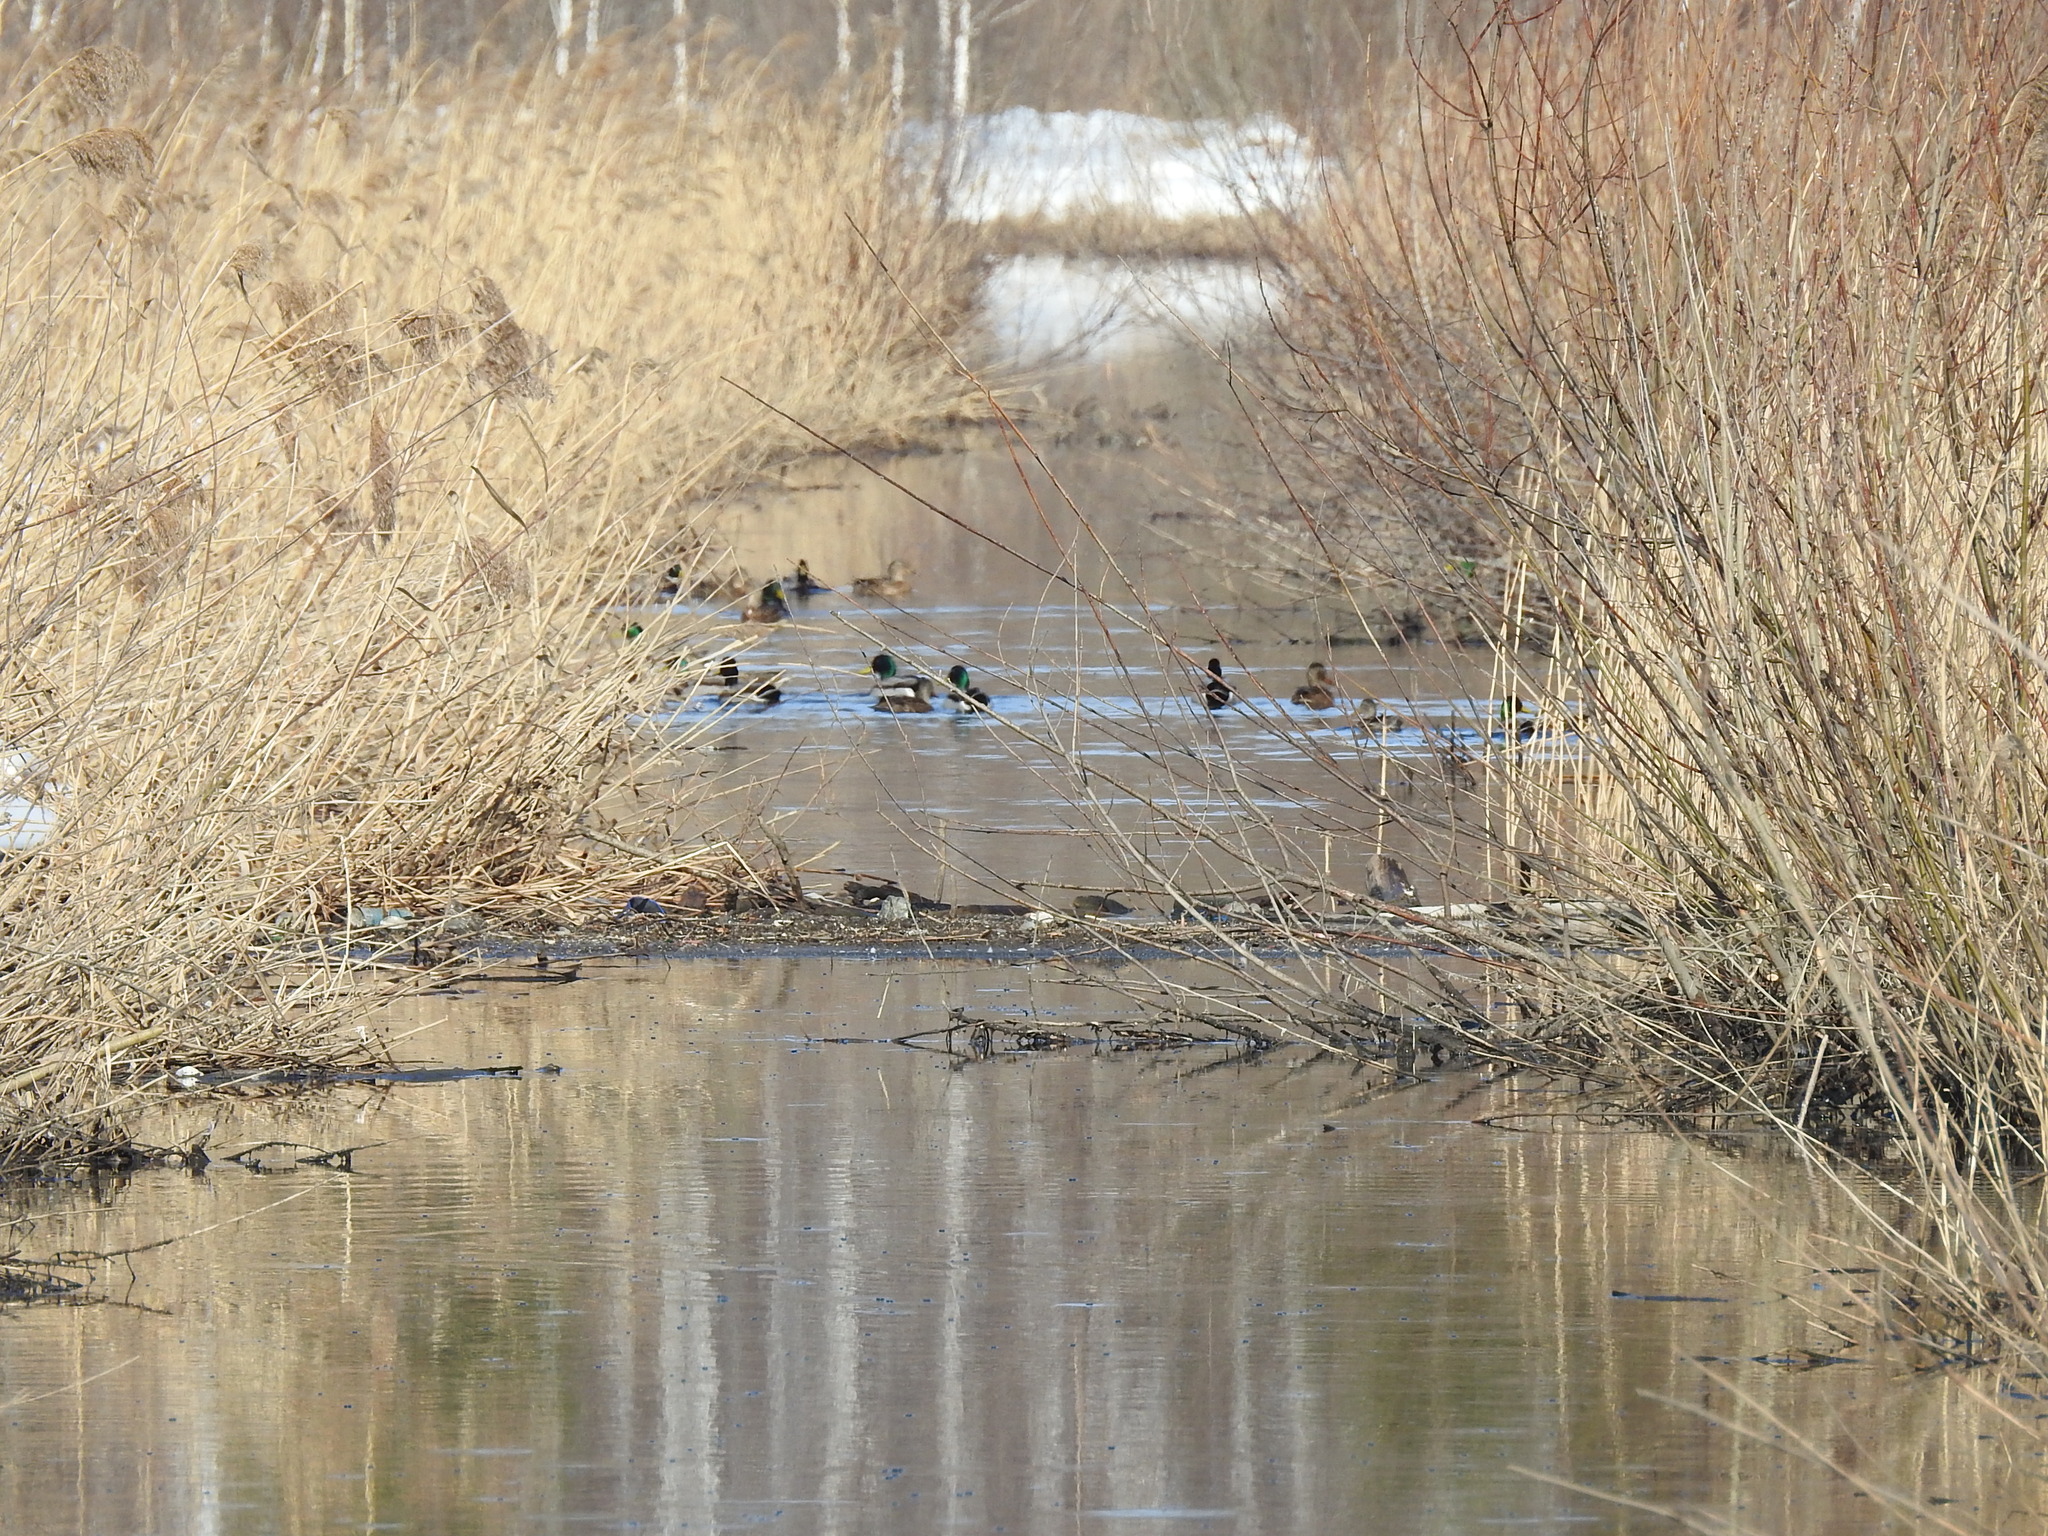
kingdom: Animalia
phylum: Chordata
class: Aves
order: Anseriformes
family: Anatidae
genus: Anas
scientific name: Anas platyrhynchos
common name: Mallard
